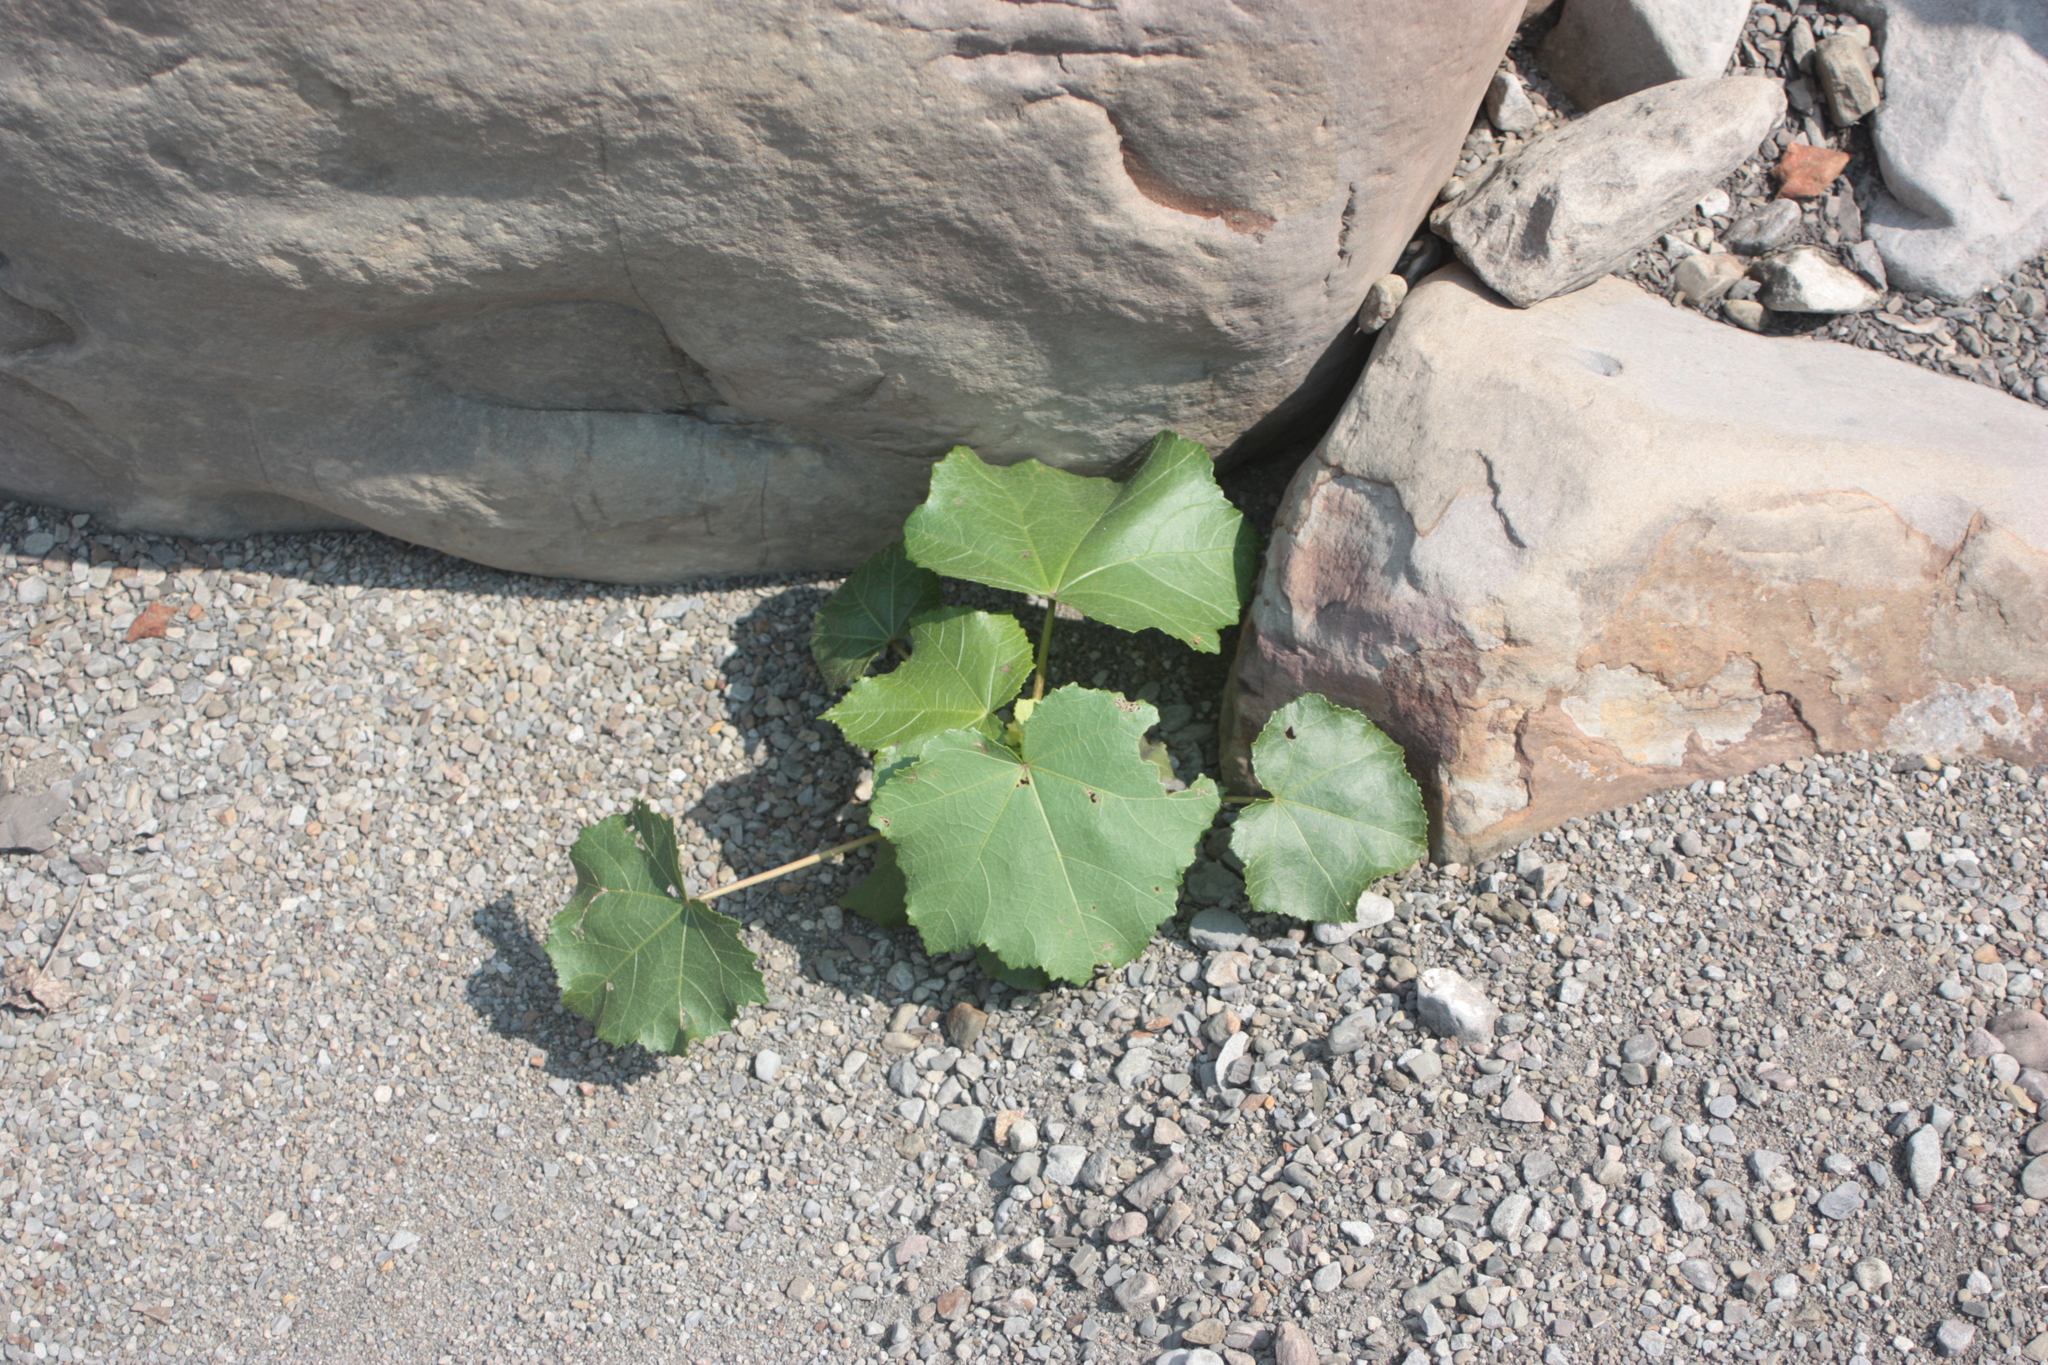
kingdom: Plantae
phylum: Tracheophyta
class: Magnoliopsida
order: Malvales
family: Malvaceae
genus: Hibiscus
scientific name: Hibiscus taiwanensis
